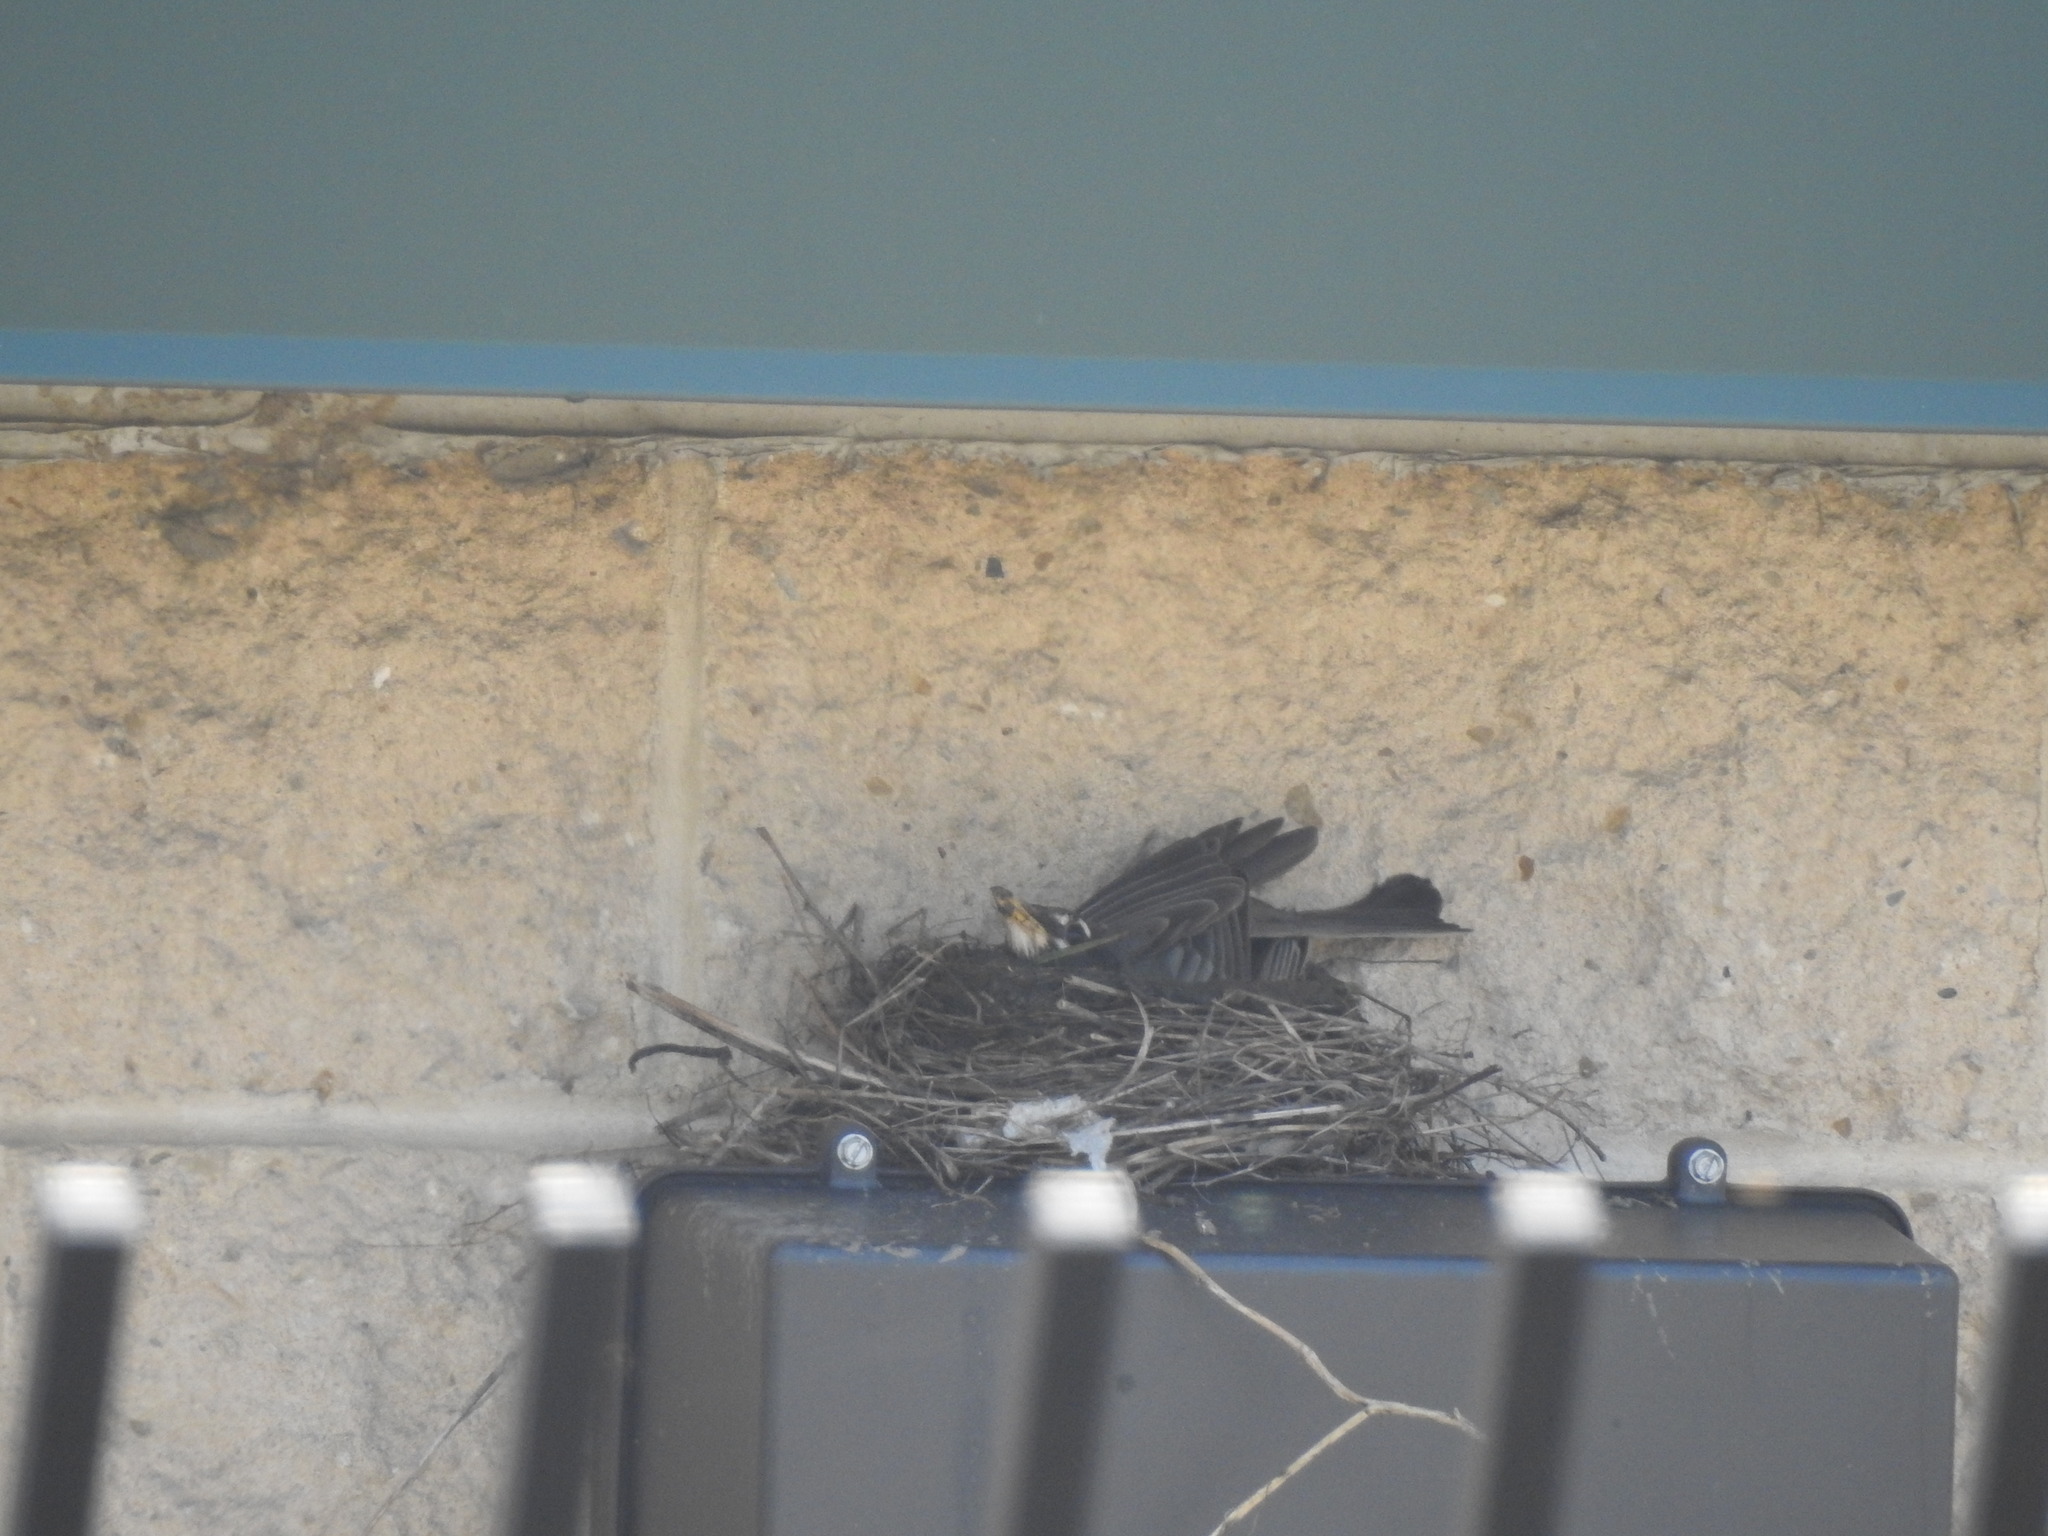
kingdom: Animalia
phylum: Chordata
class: Aves
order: Passeriformes
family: Turdidae
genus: Turdus
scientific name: Turdus migratorius
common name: American robin
